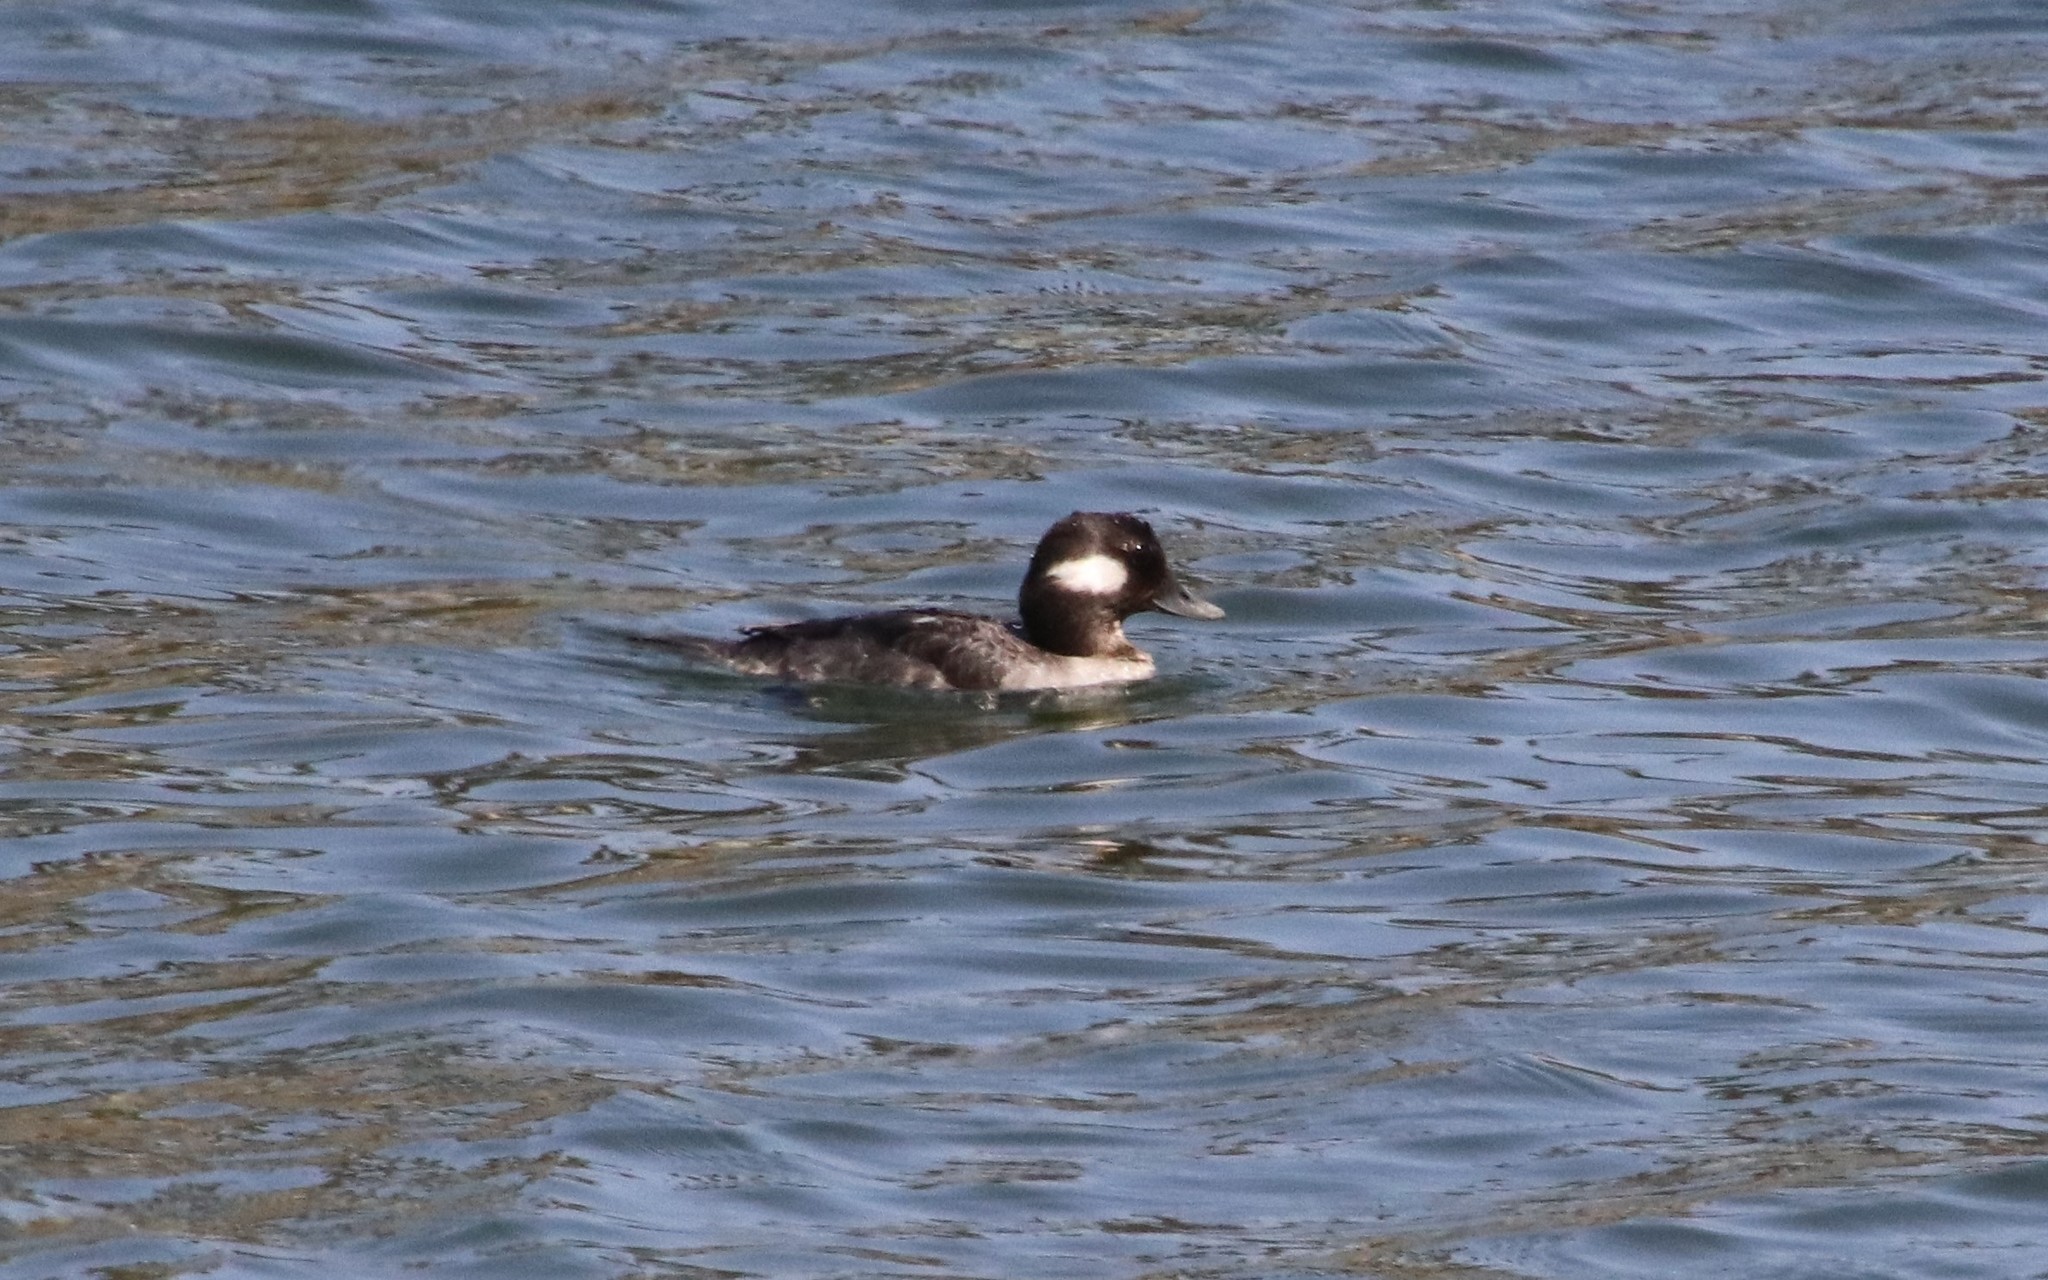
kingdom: Animalia
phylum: Chordata
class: Aves
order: Anseriformes
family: Anatidae
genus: Bucephala
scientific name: Bucephala albeola
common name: Bufflehead
